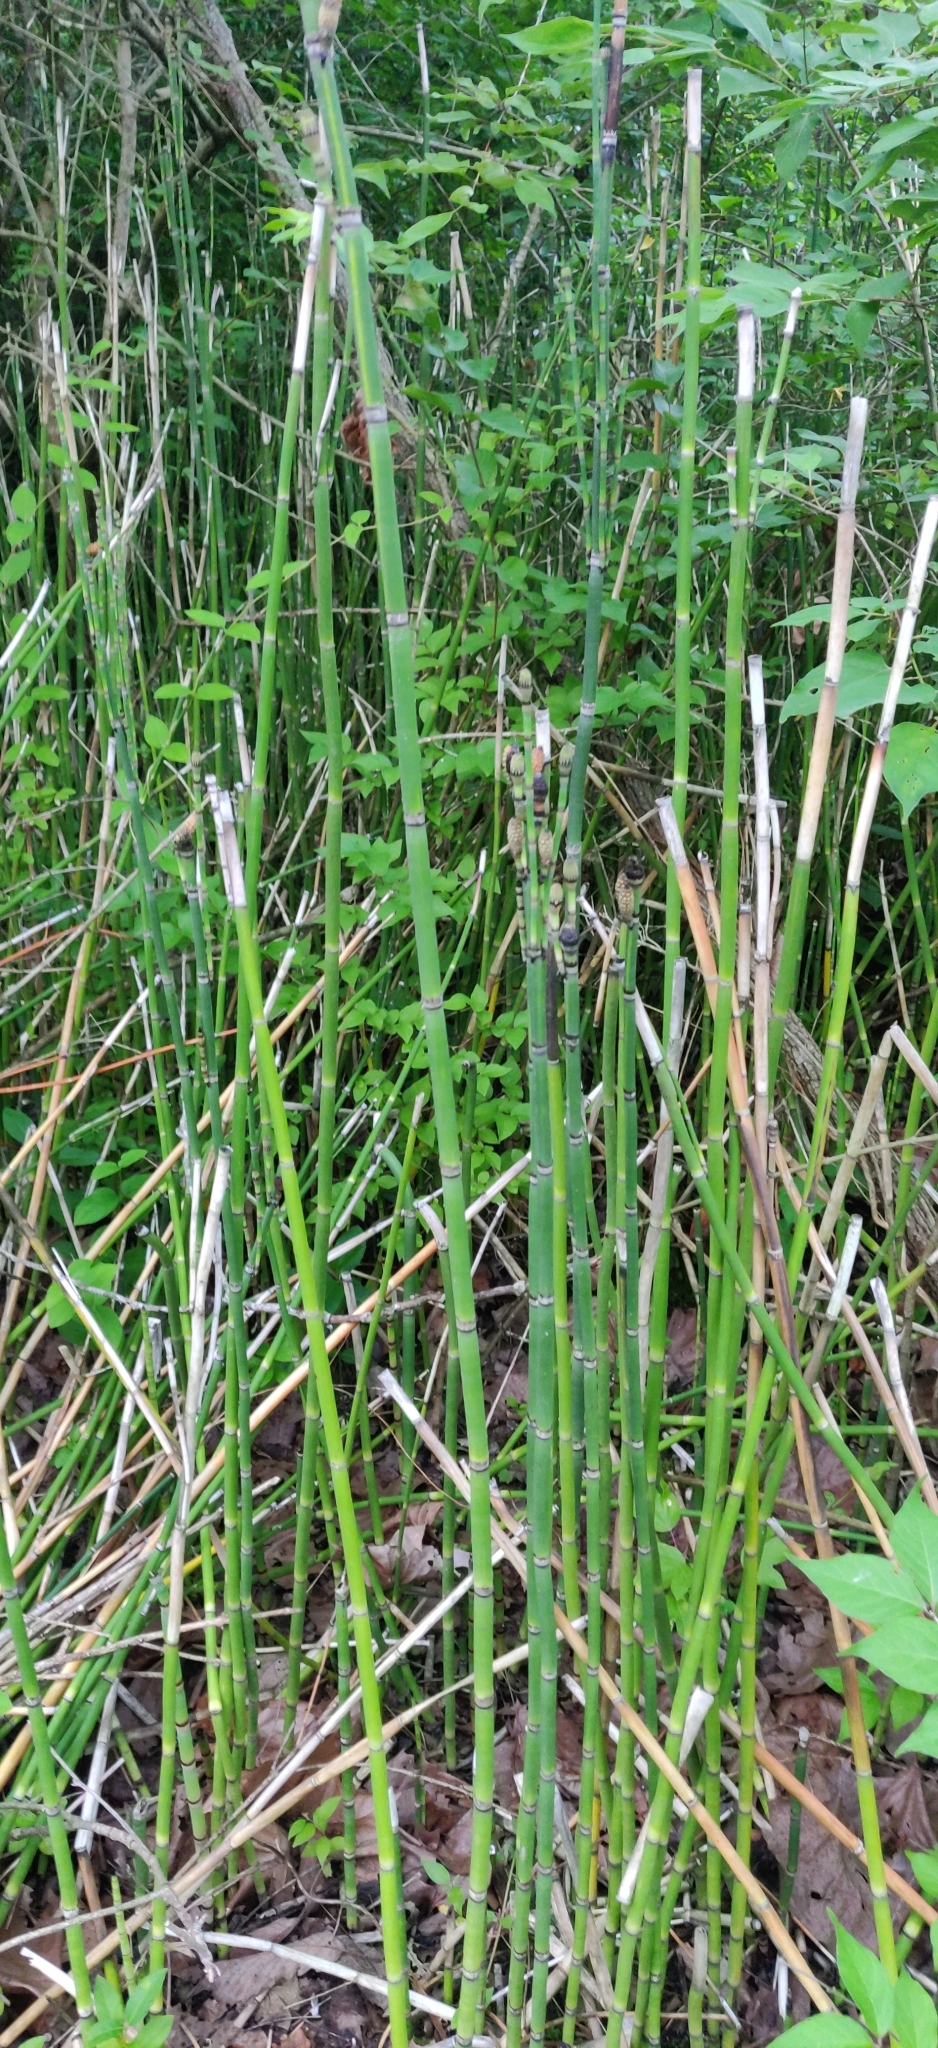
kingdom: Plantae
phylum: Tracheophyta
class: Polypodiopsida
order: Equisetales
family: Equisetaceae
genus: Equisetum
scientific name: Equisetum hyemale
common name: Rough horsetail
